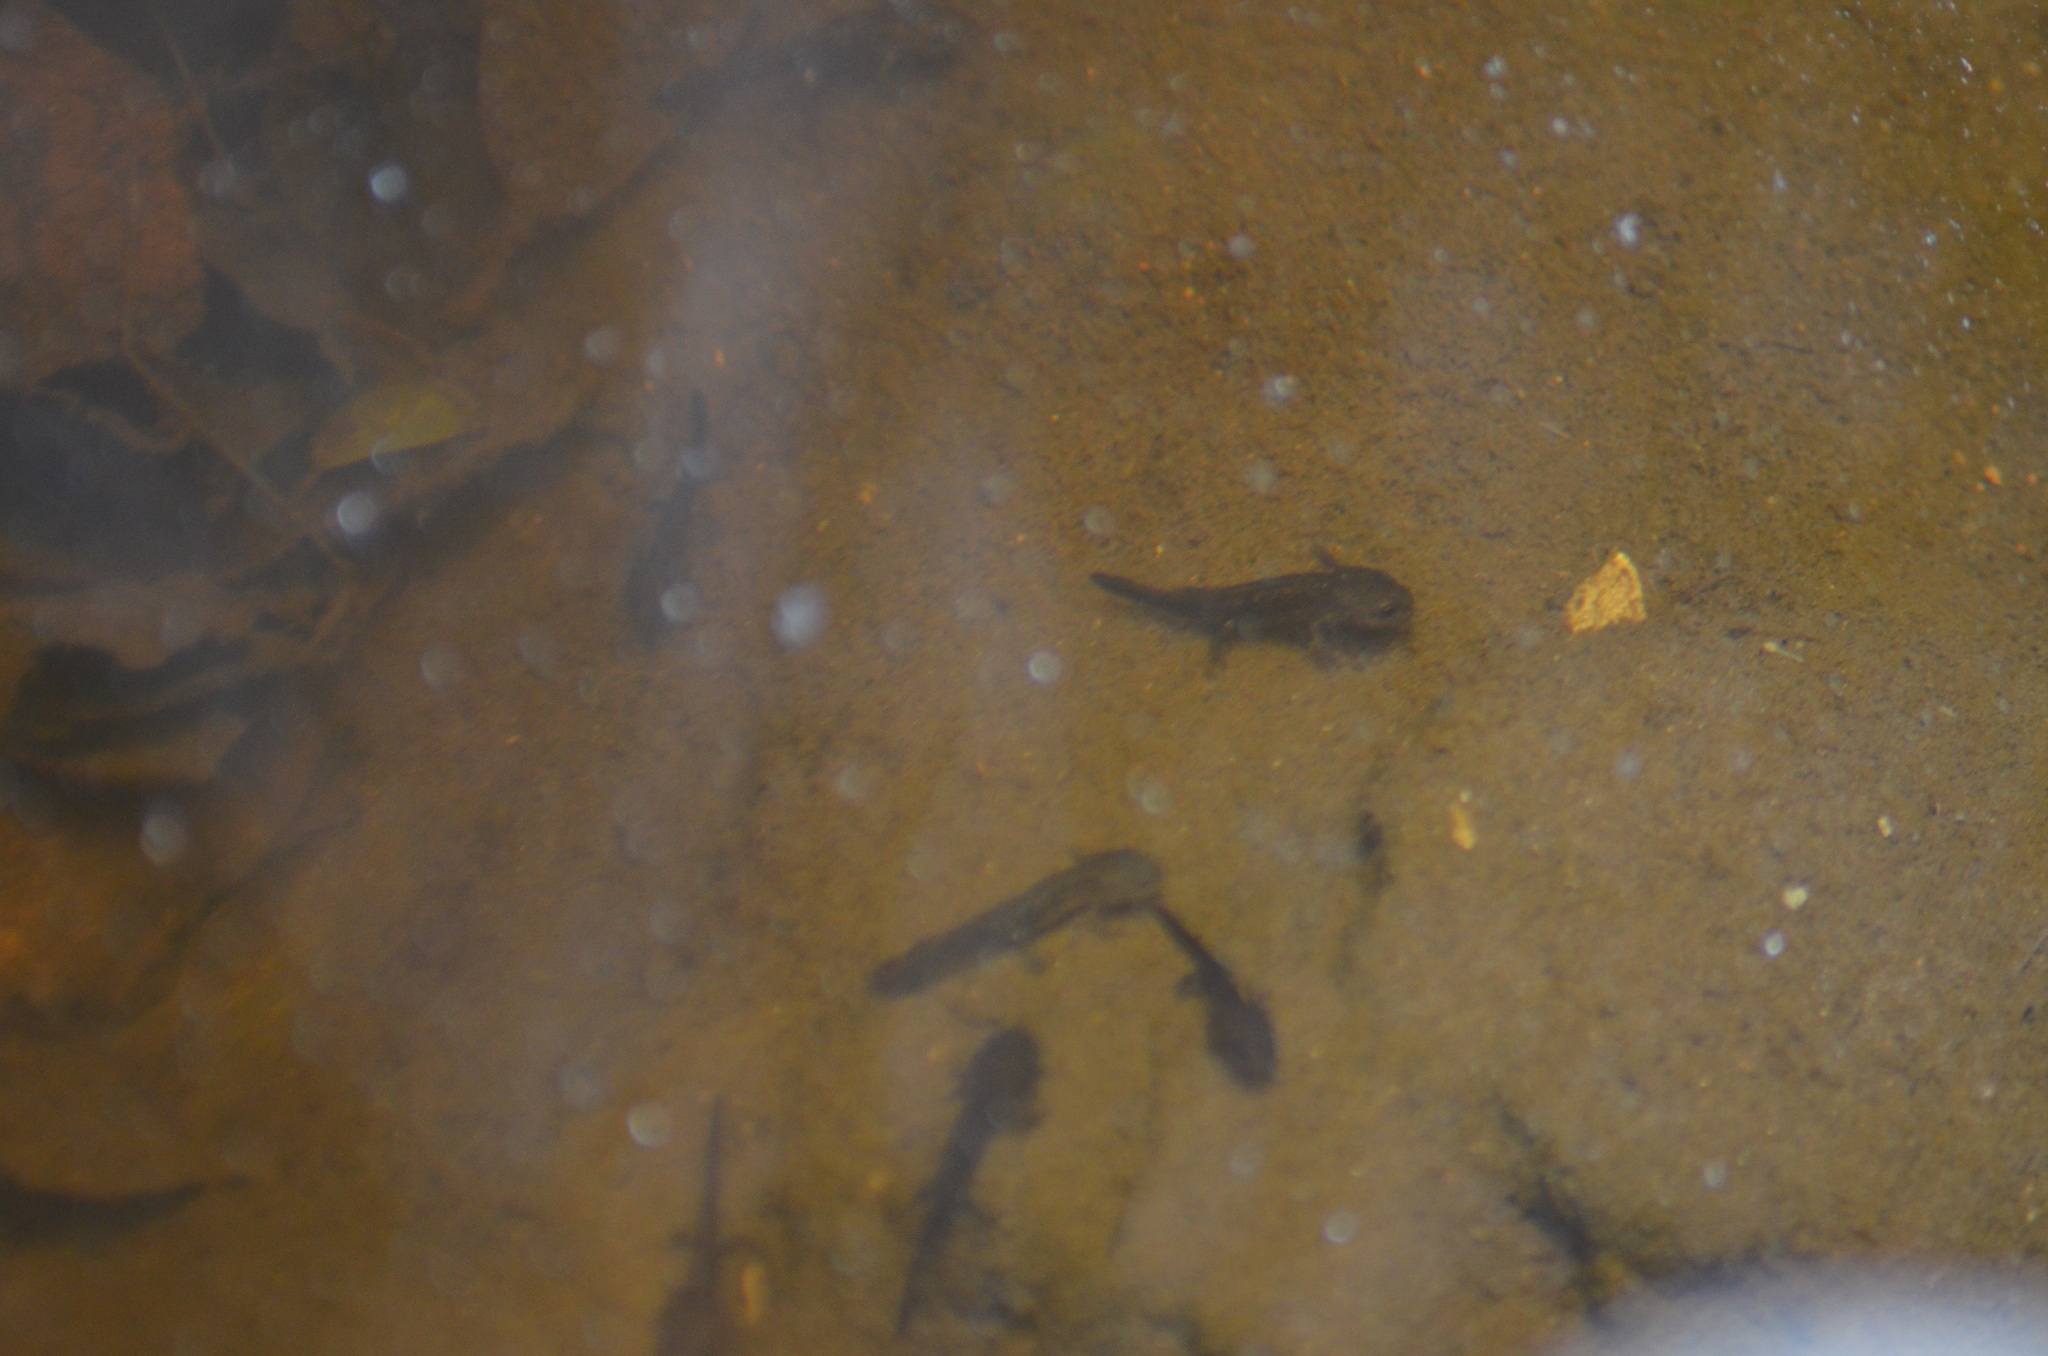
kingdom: Animalia
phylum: Chordata
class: Amphibia
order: Caudata
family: Salamandridae
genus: Salamandra
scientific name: Salamandra salamandra
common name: Fire salamander
